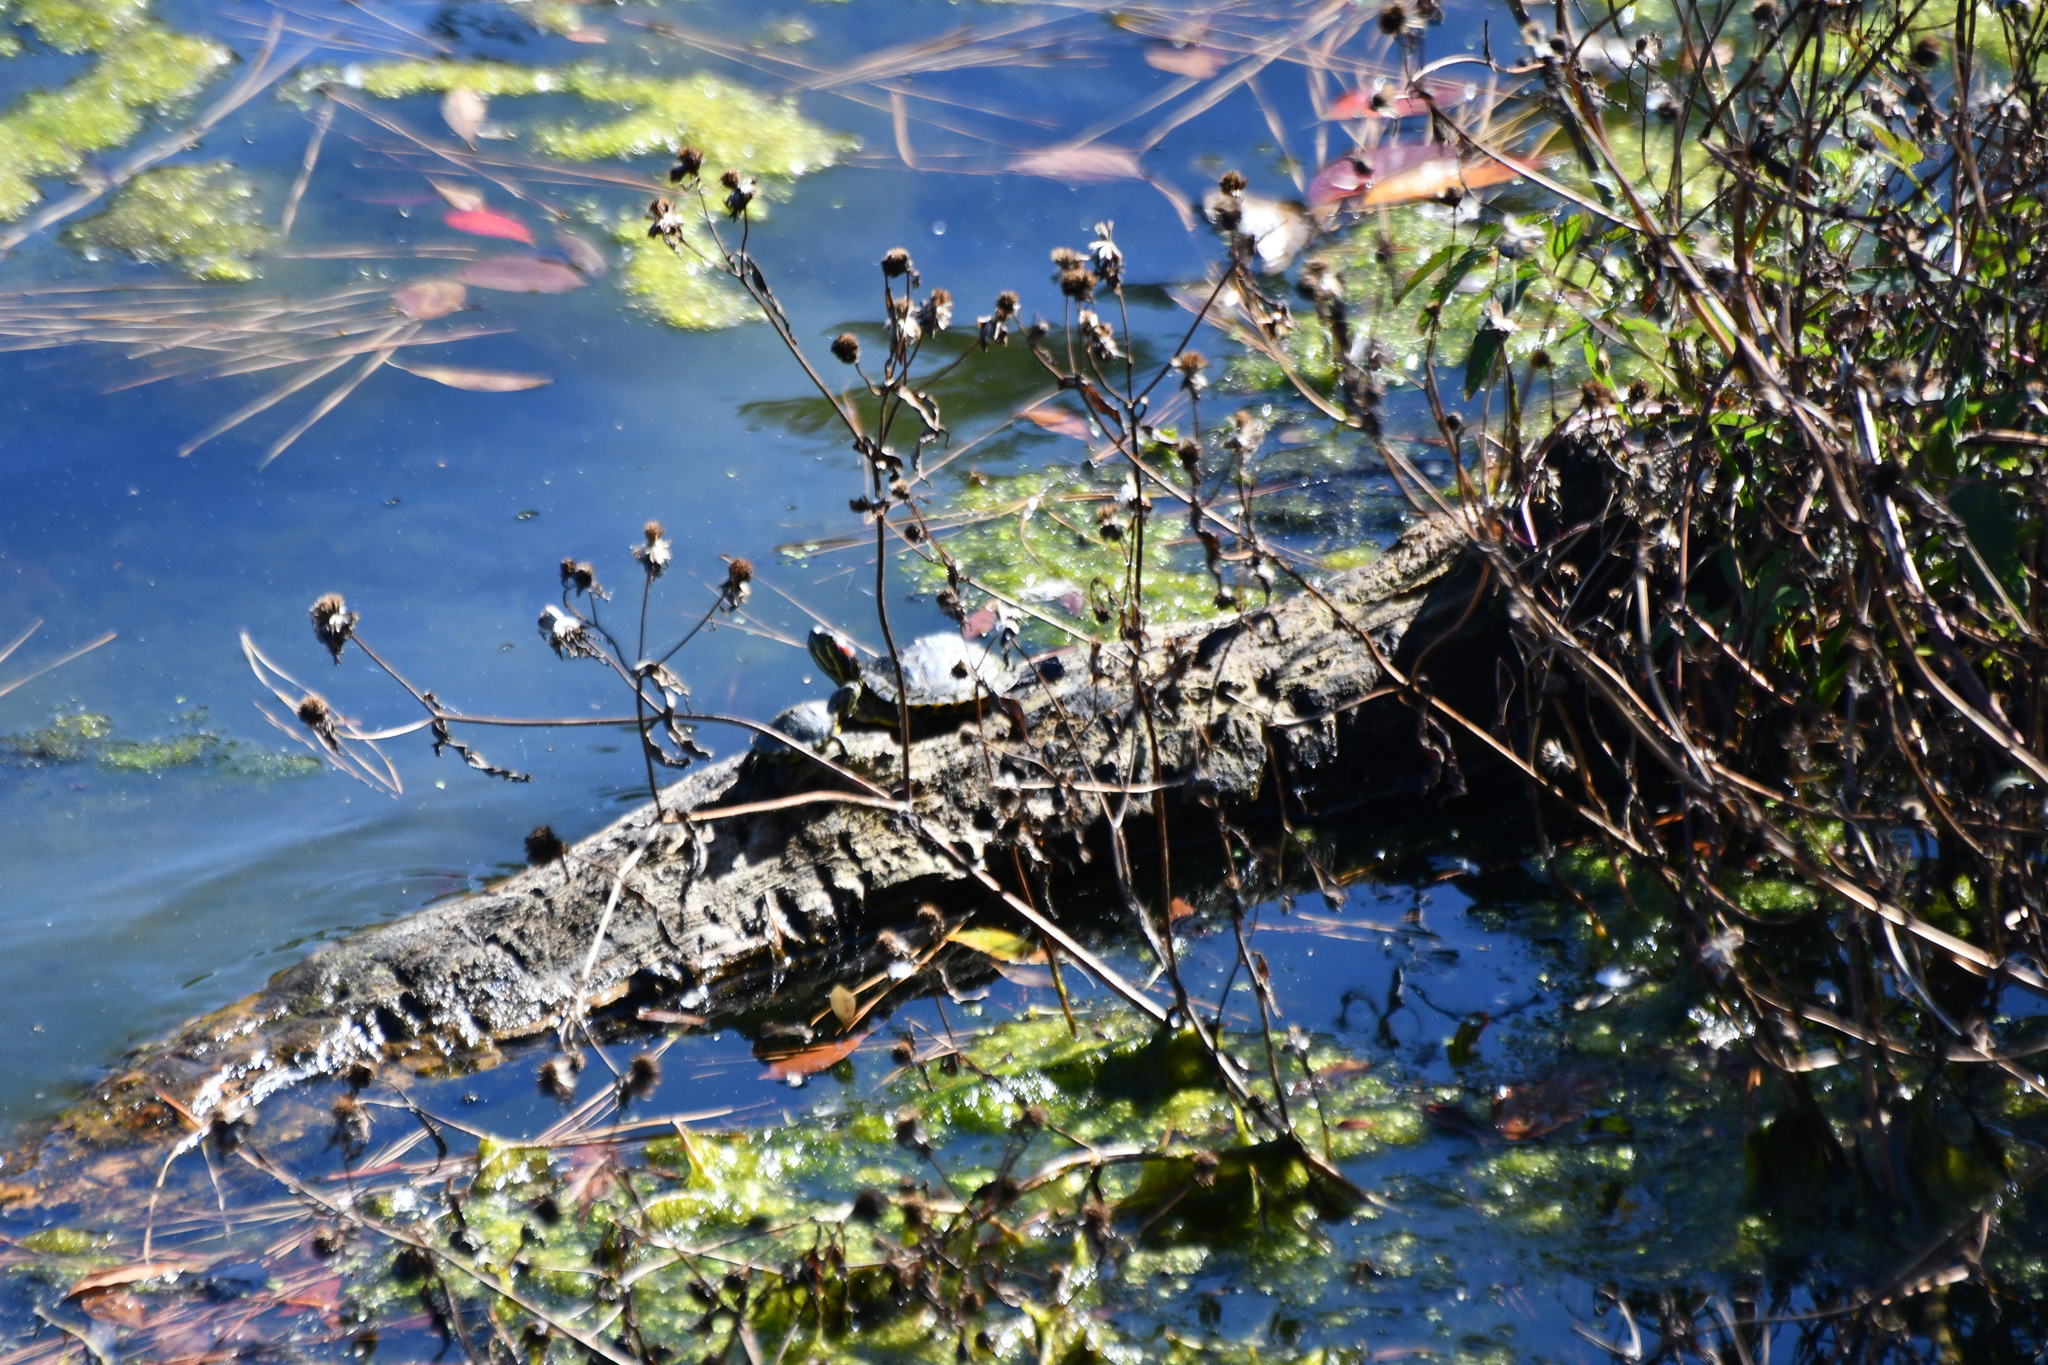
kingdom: Animalia
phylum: Chordata
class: Testudines
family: Emydidae
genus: Trachemys
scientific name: Trachemys scripta
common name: Slider
